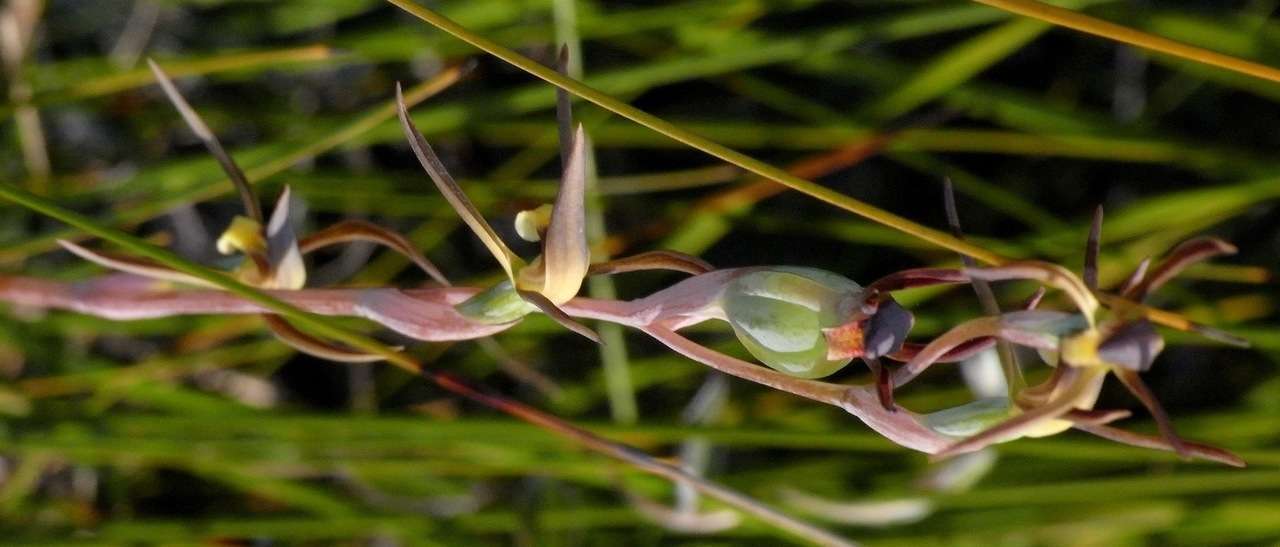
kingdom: Plantae
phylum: Tracheophyta
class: Liliopsida
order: Asparagales
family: Orchidaceae
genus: Lyperanthus
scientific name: Lyperanthus suaveolens
